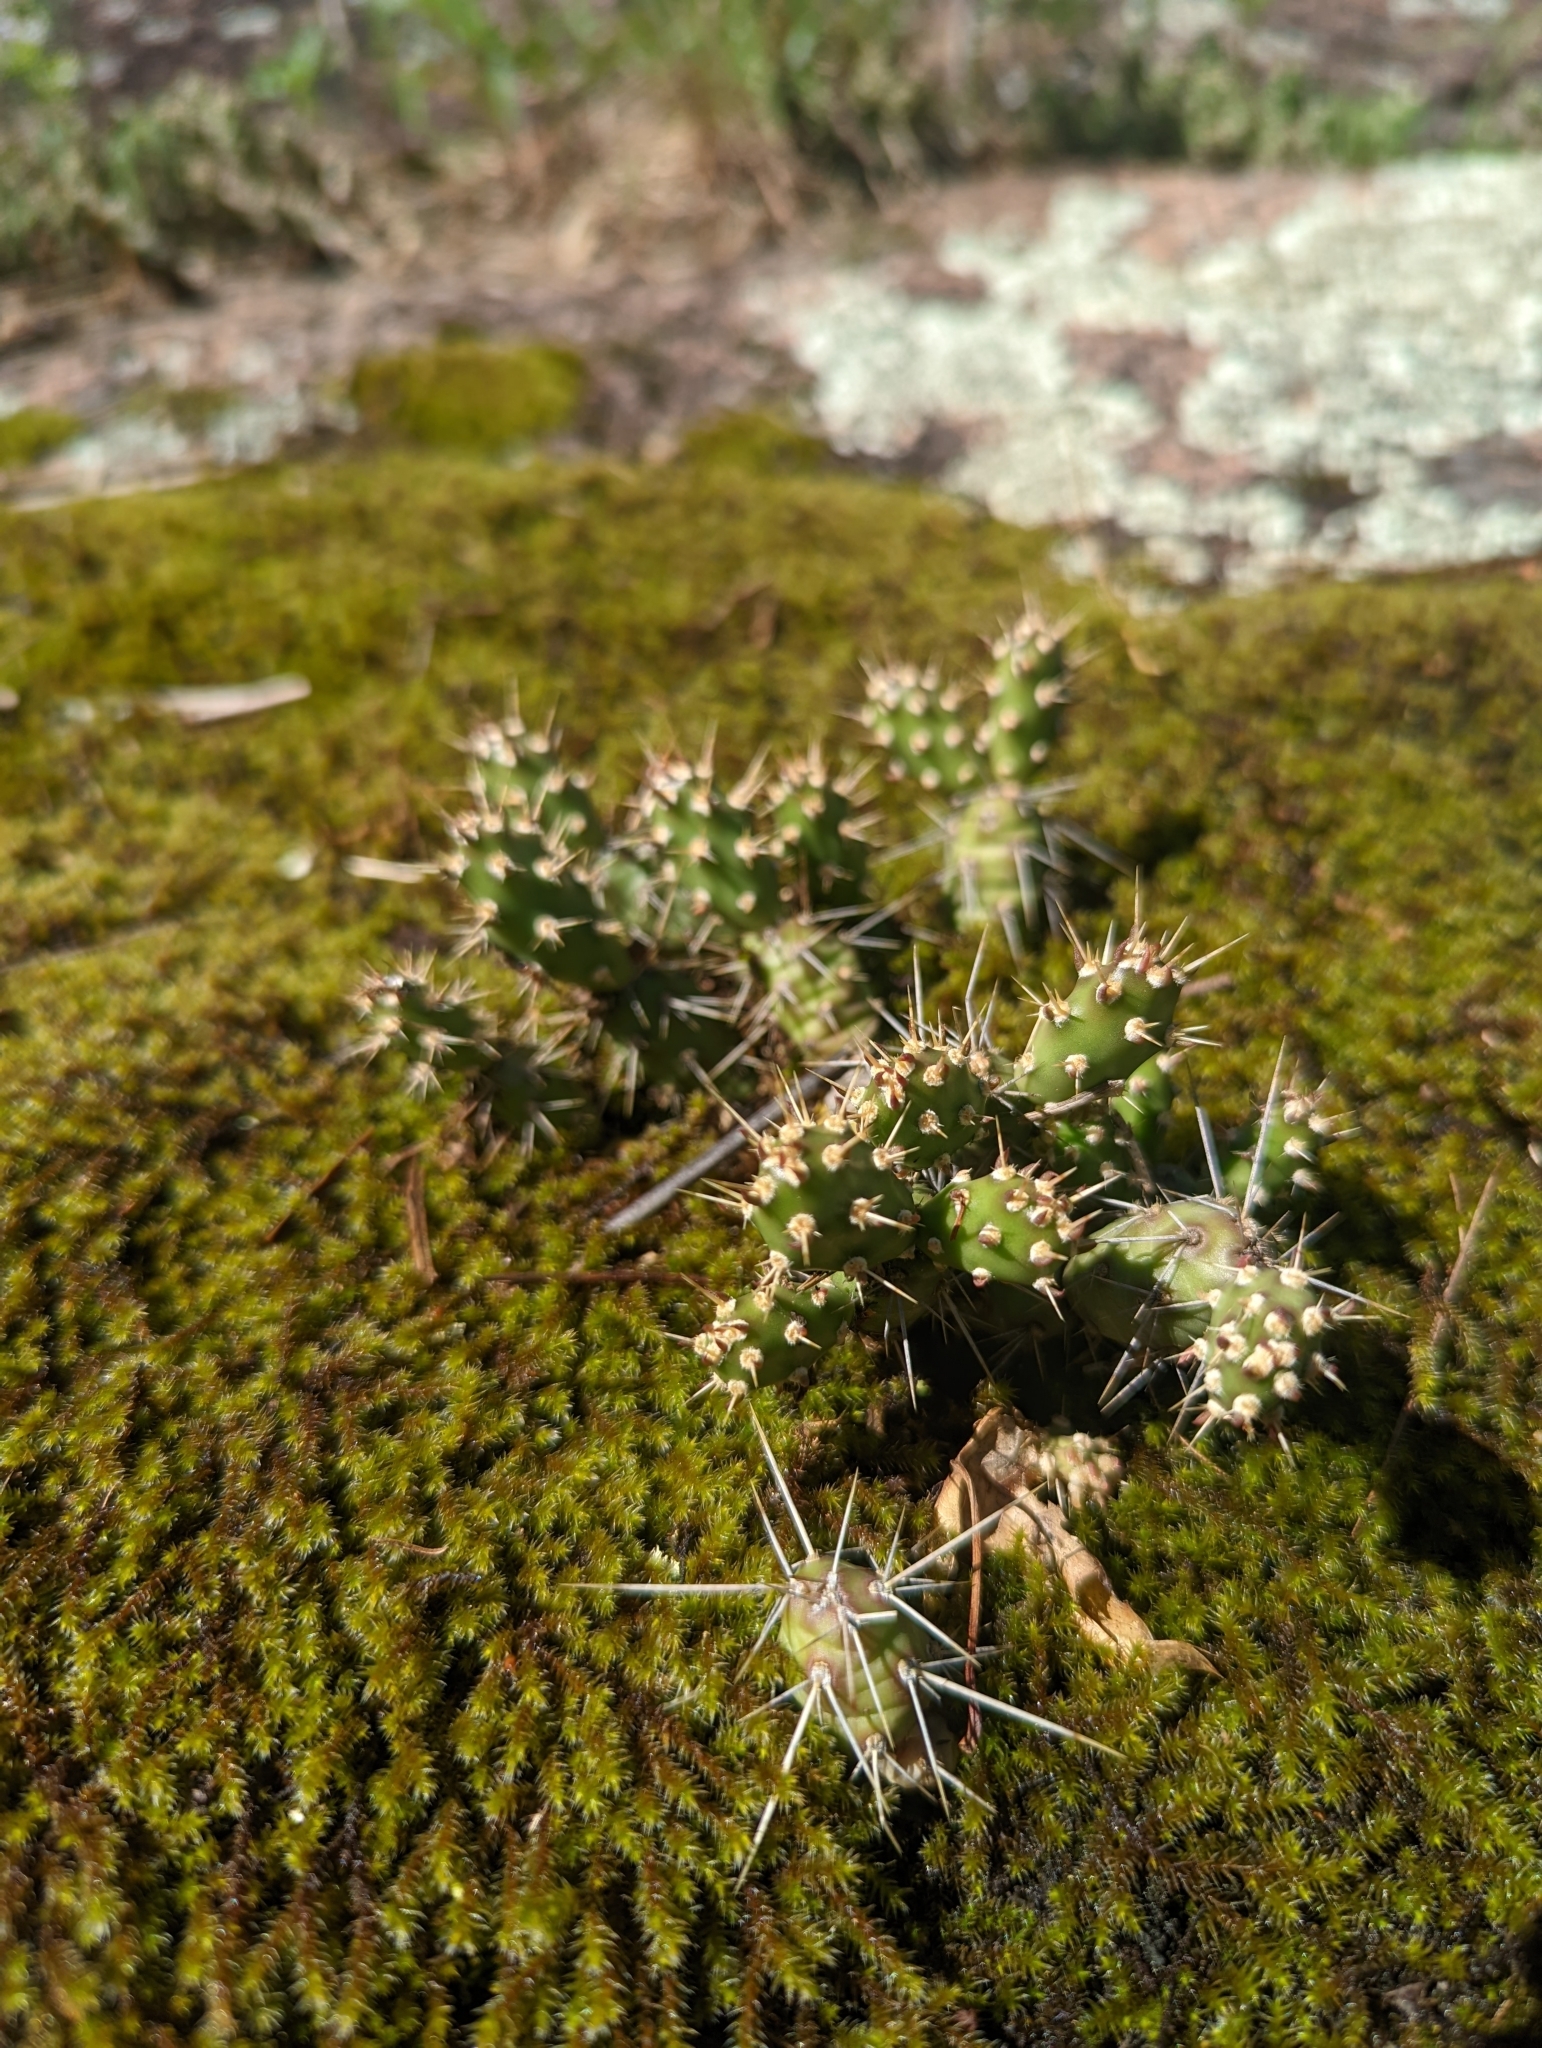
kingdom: Plantae
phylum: Tracheophyta
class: Magnoliopsida
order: Caryophyllales
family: Cactaceae
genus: Opuntia
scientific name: Opuntia fragilis
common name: Brittle cactus
